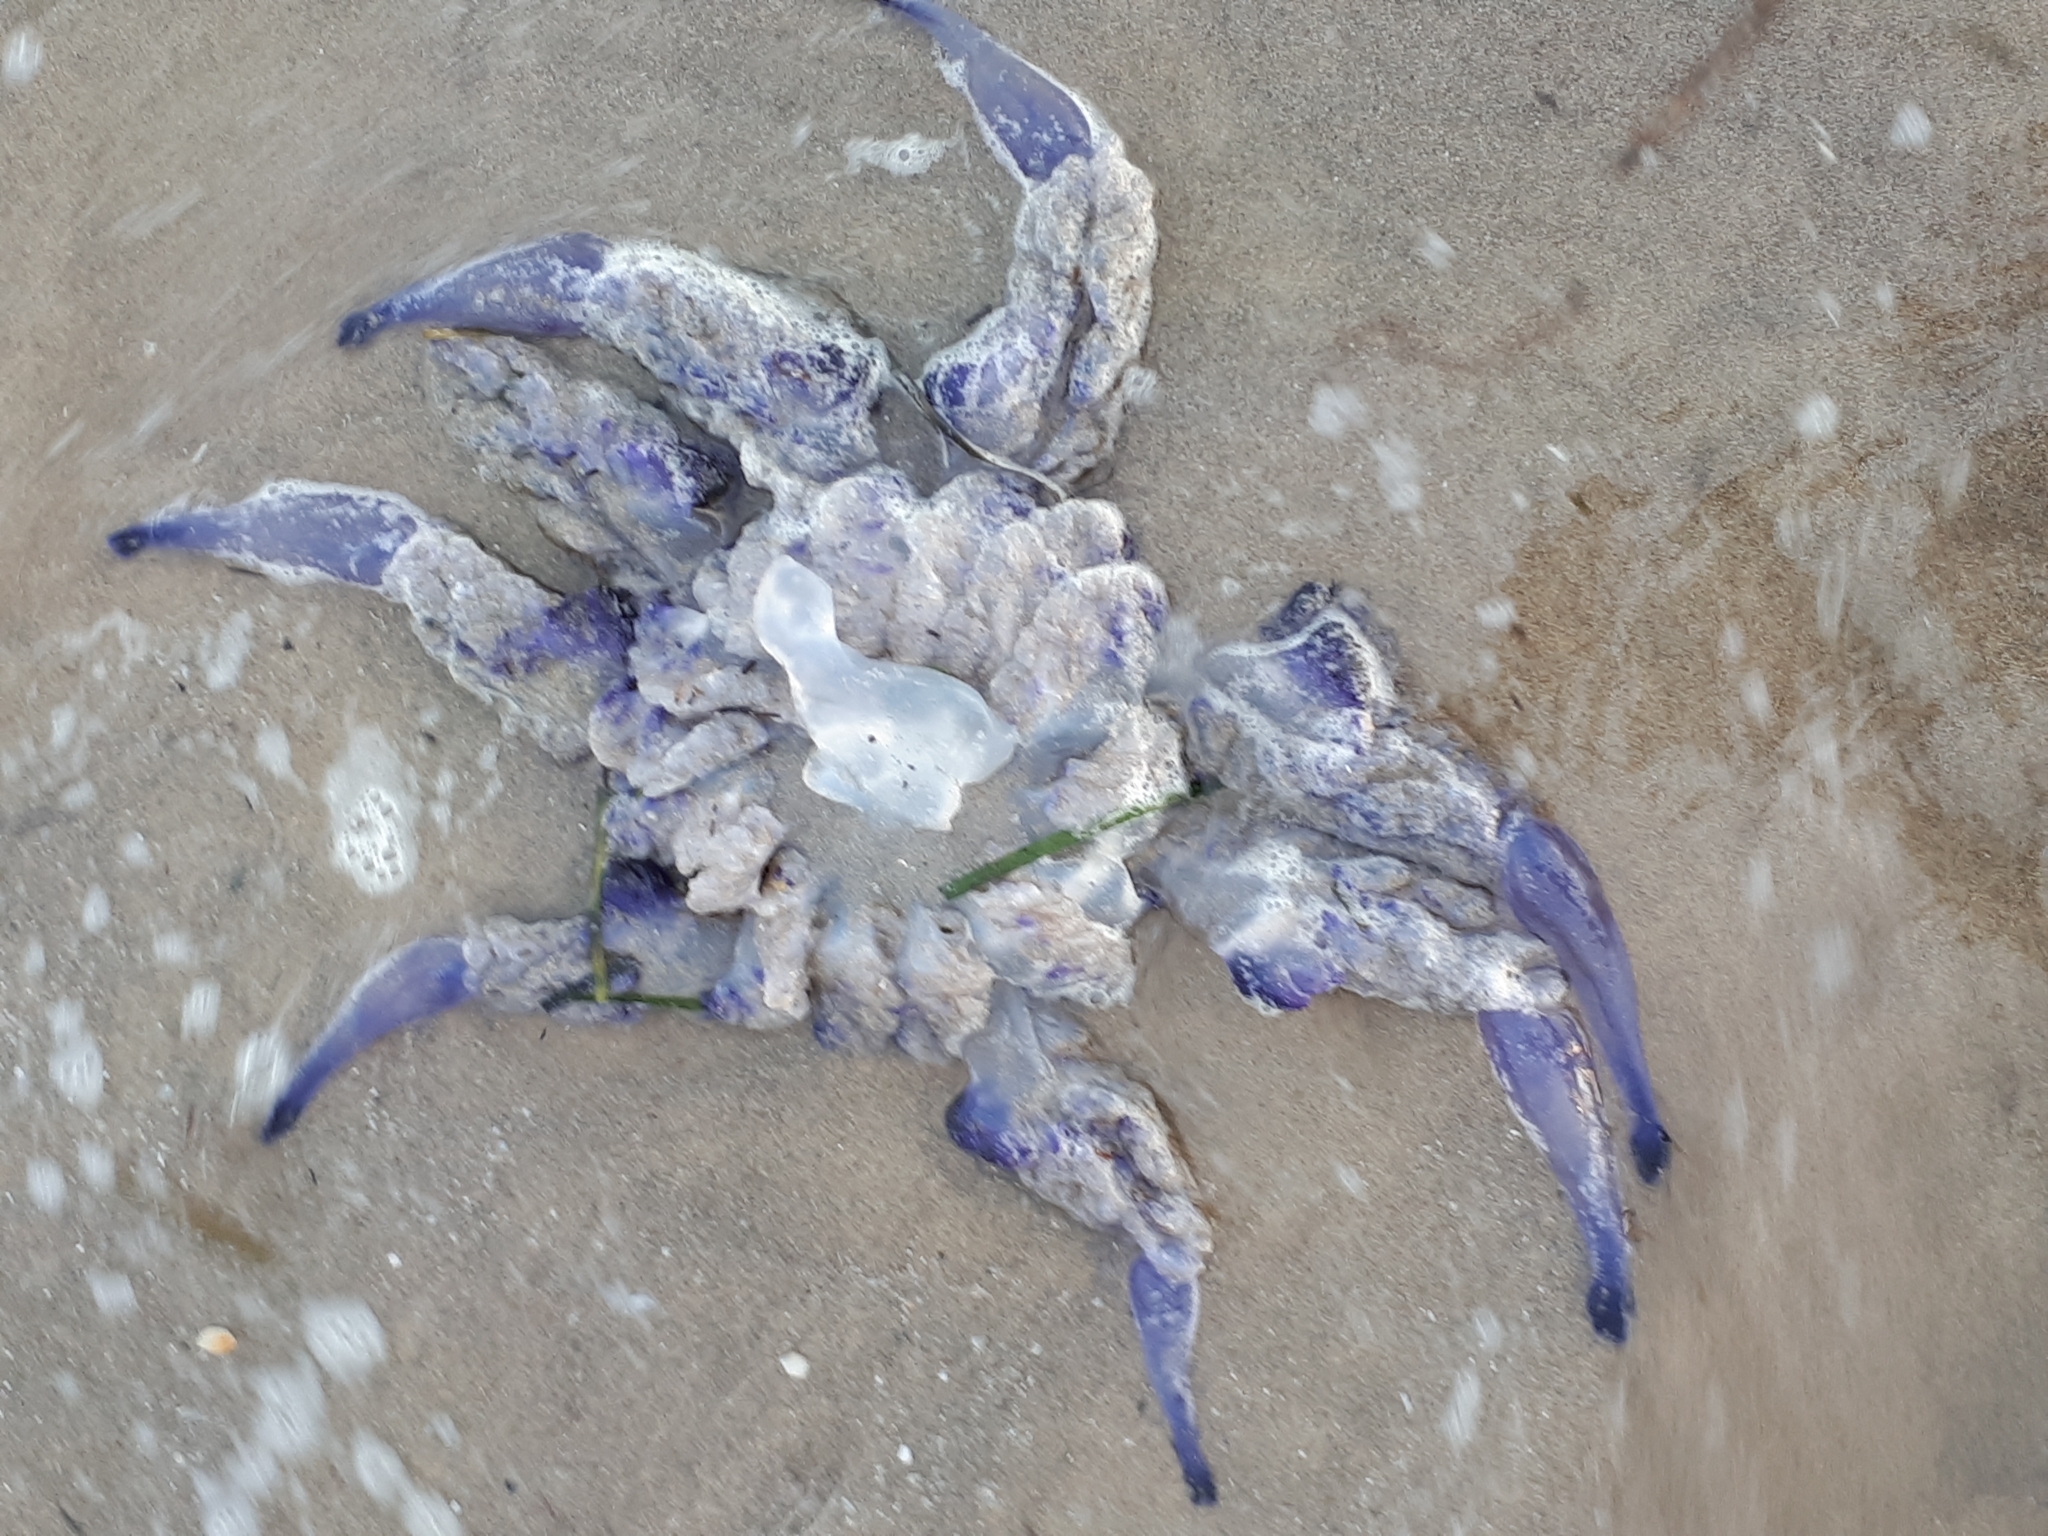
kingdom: Animalia
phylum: Cnidaria
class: Scyphozoa
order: Rhizostomeae
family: Rhizostomatidae
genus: Rhizostoma
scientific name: Rhizostoma pulmo
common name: Barrel jellyfish
